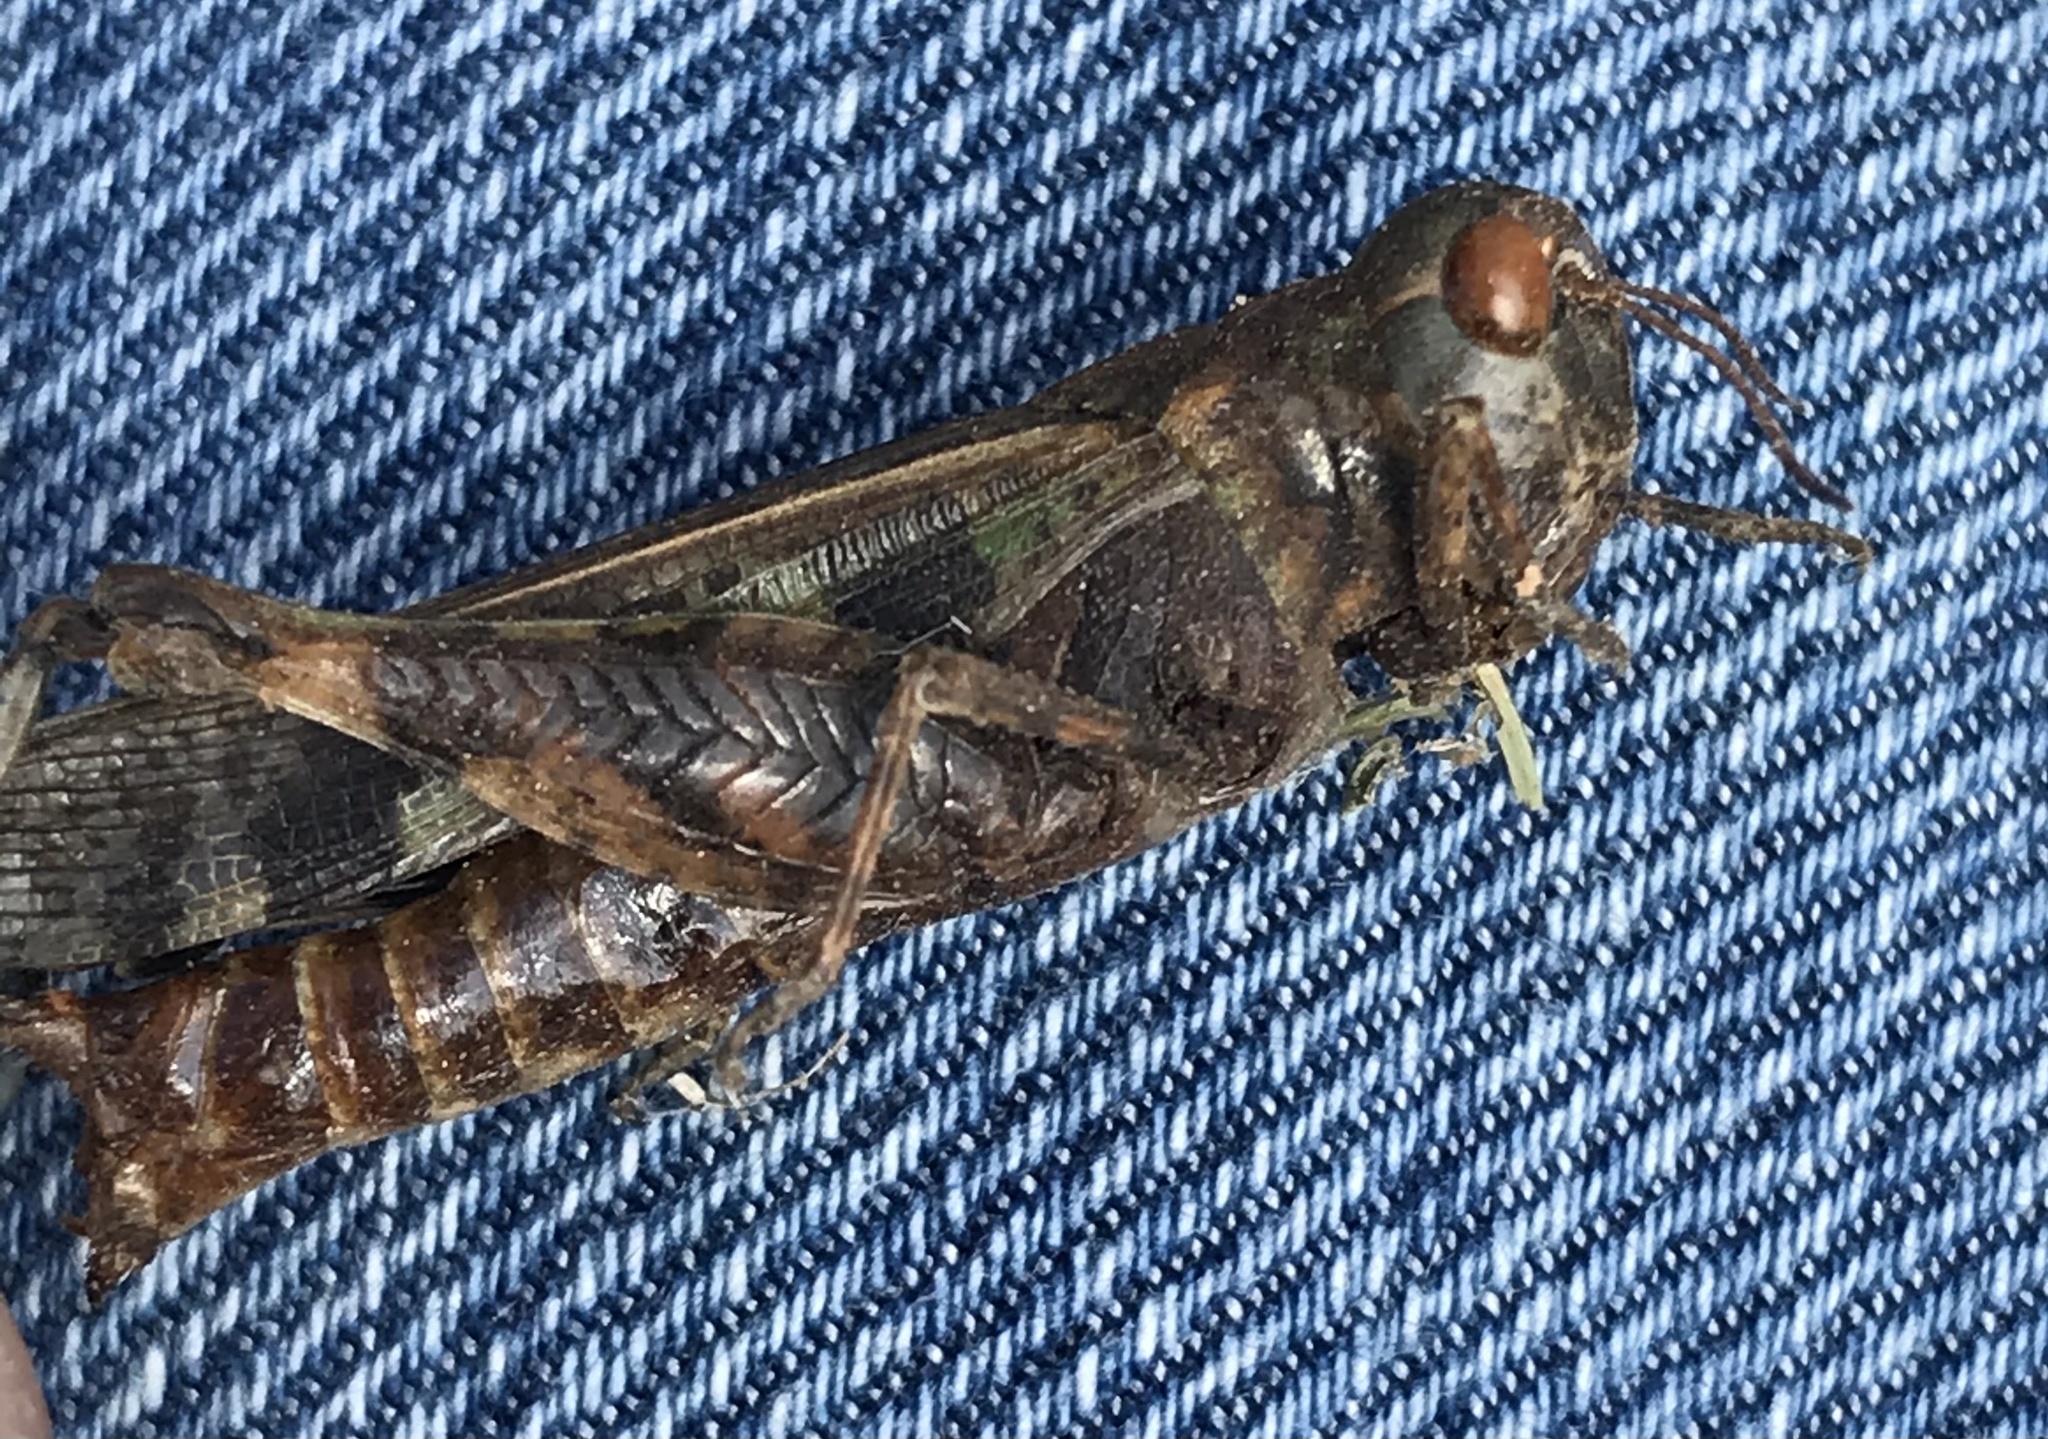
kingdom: Animalia
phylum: Arthropoda
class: Insecta
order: Orthoptera
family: Acrididae
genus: Encoptolophus
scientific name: Encoptolophus costalis
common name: Dusky grasshopper
